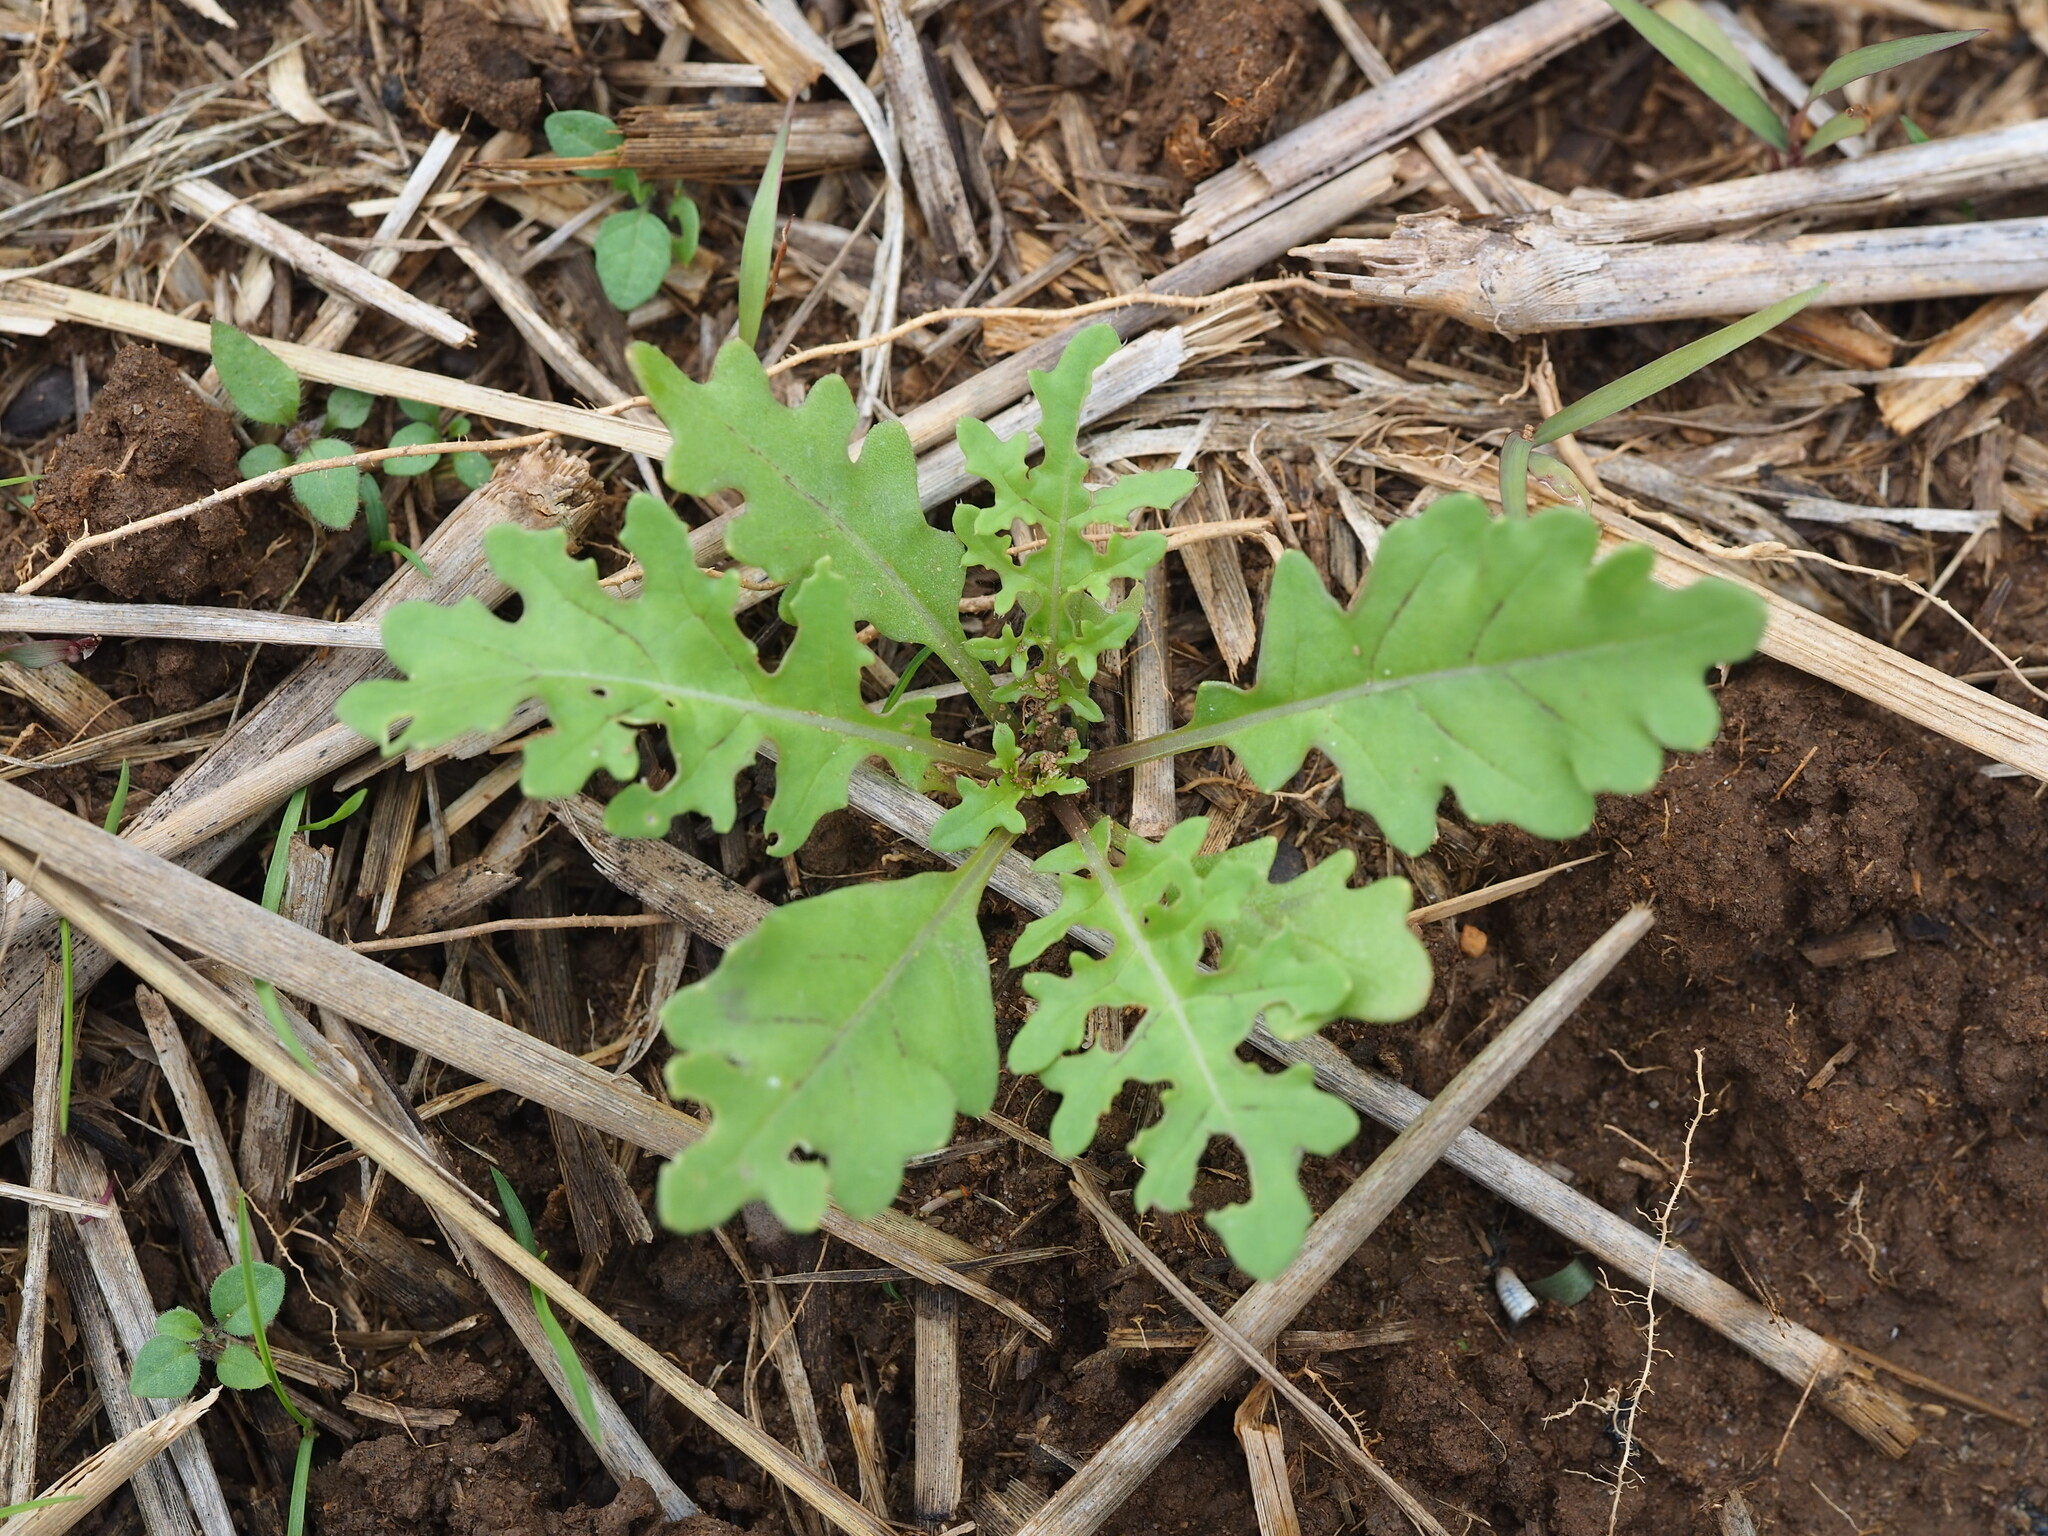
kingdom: Plantae
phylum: Tracheophyta
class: Magnoliopsida
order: Brassicales
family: Brassicaceae
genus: Rorippa
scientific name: Rorippa palustris
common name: Marsh yellow-cress
